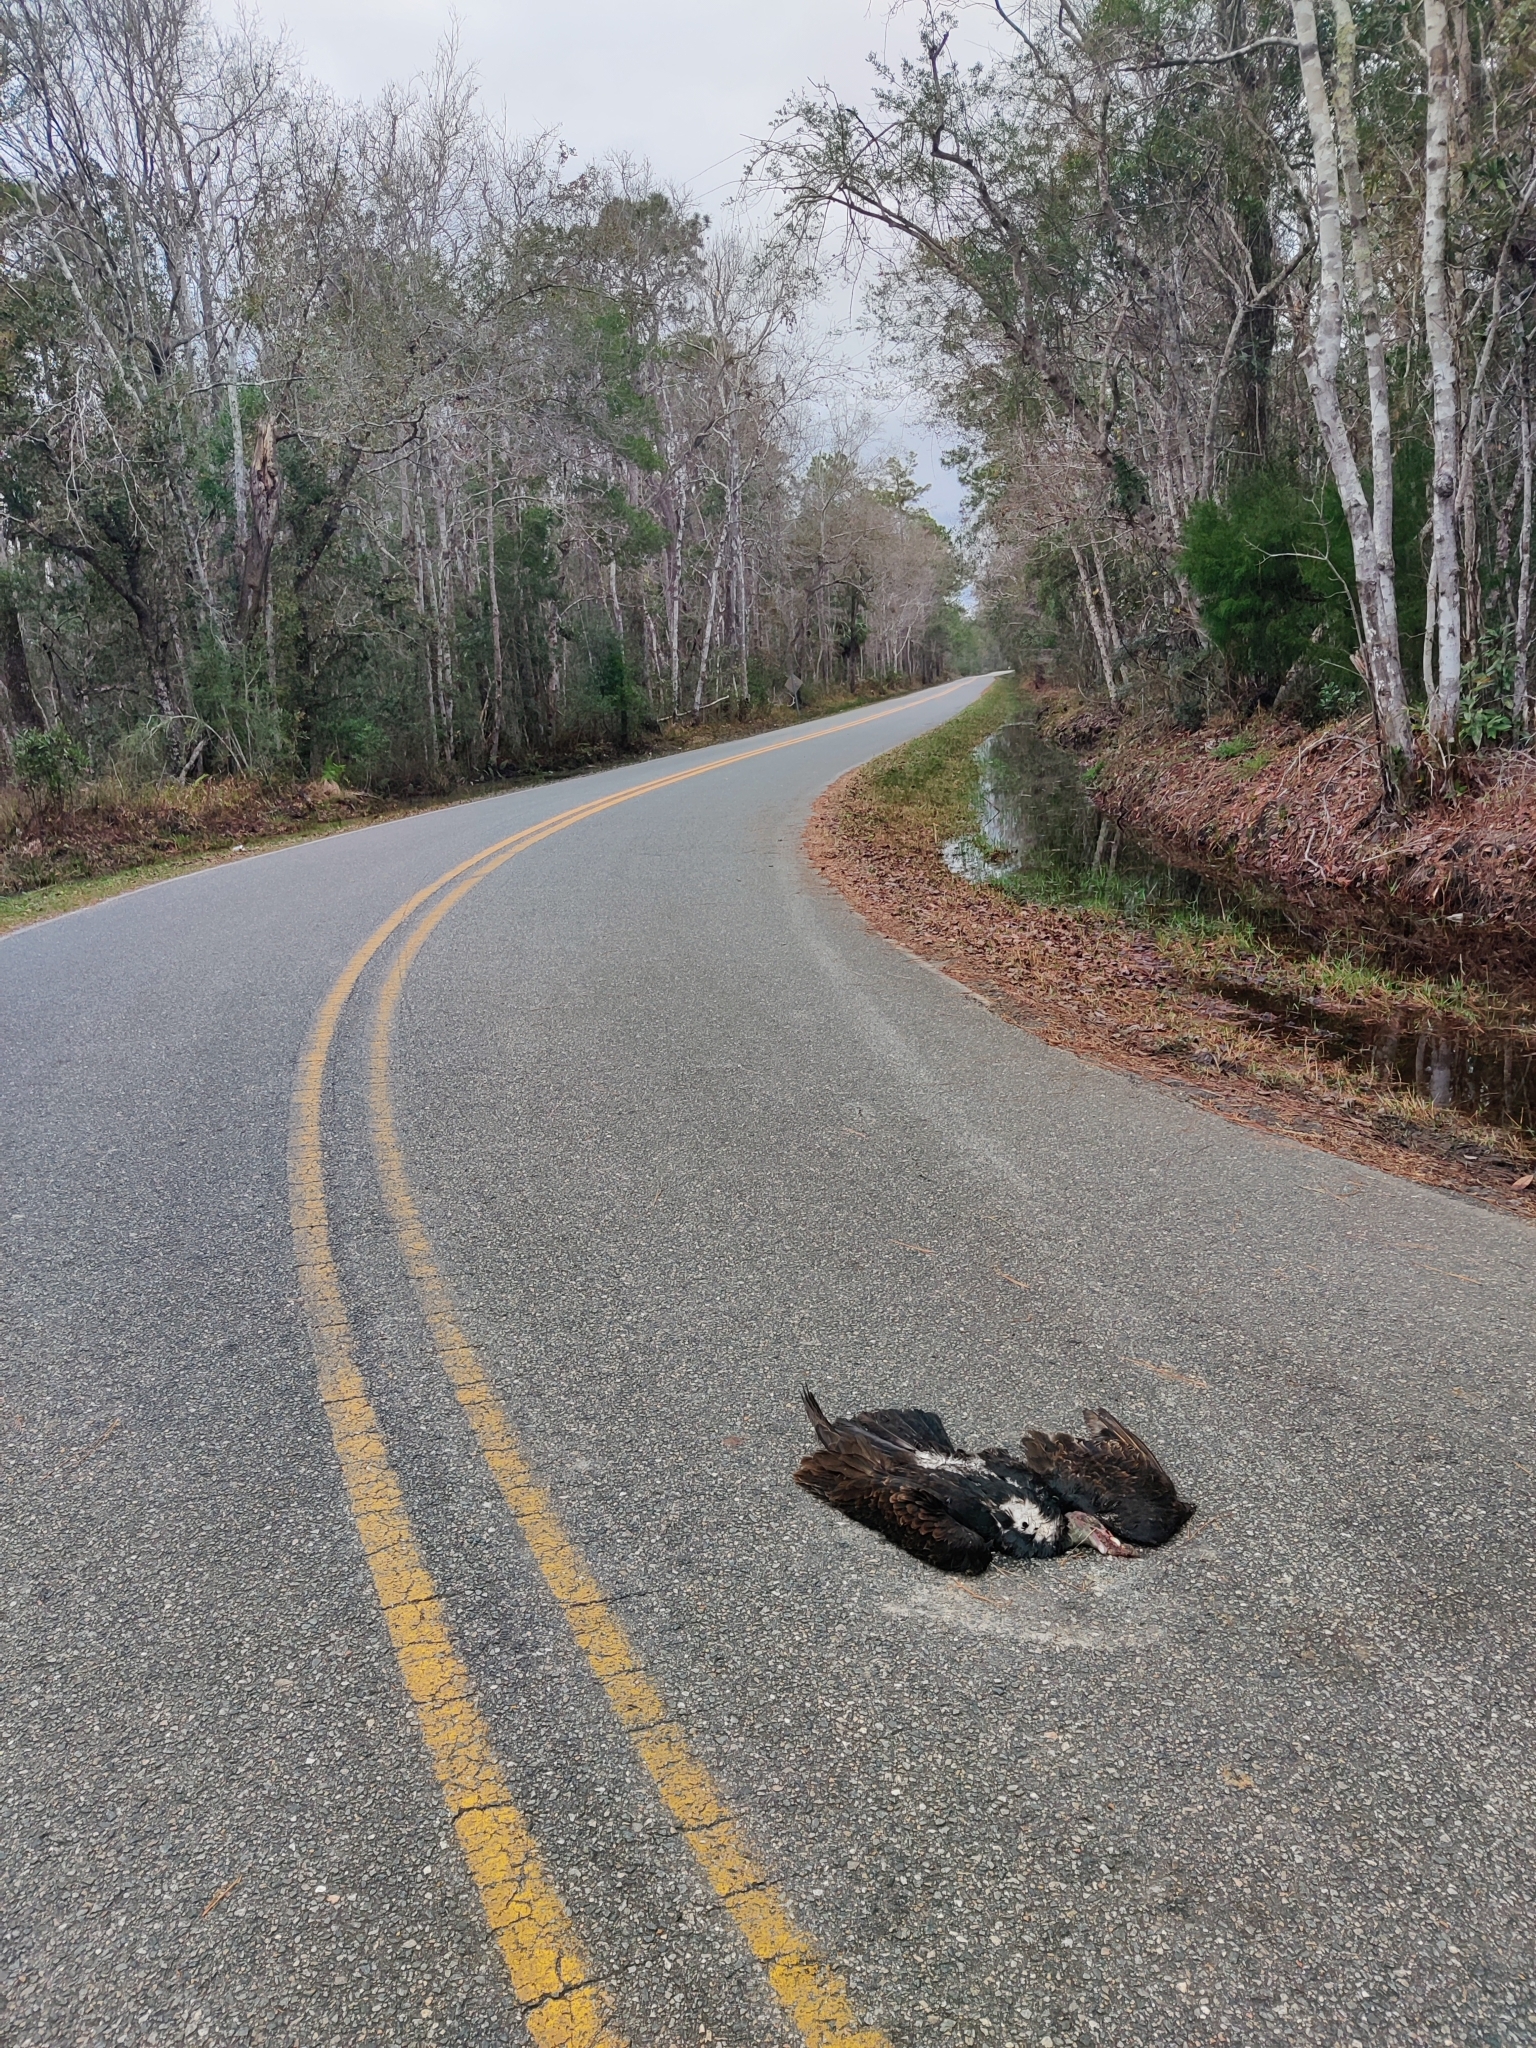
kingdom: Animalia
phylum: Chordata
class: Aves
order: Accipitriformes
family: Cathartidae
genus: Cathartes
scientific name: Cathartes aura
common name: Turkey vulture
